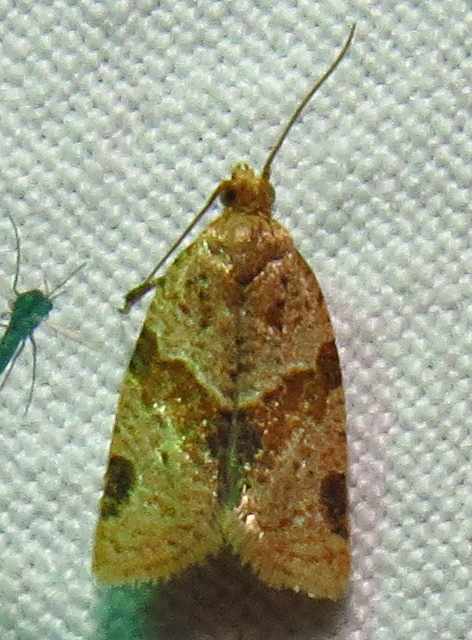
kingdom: Animalia
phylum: Arthropoda
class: Insecta
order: Lepidoptera
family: Tortricidae
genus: Clepsis
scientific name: Clepsis peritana
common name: Garden tortrix
